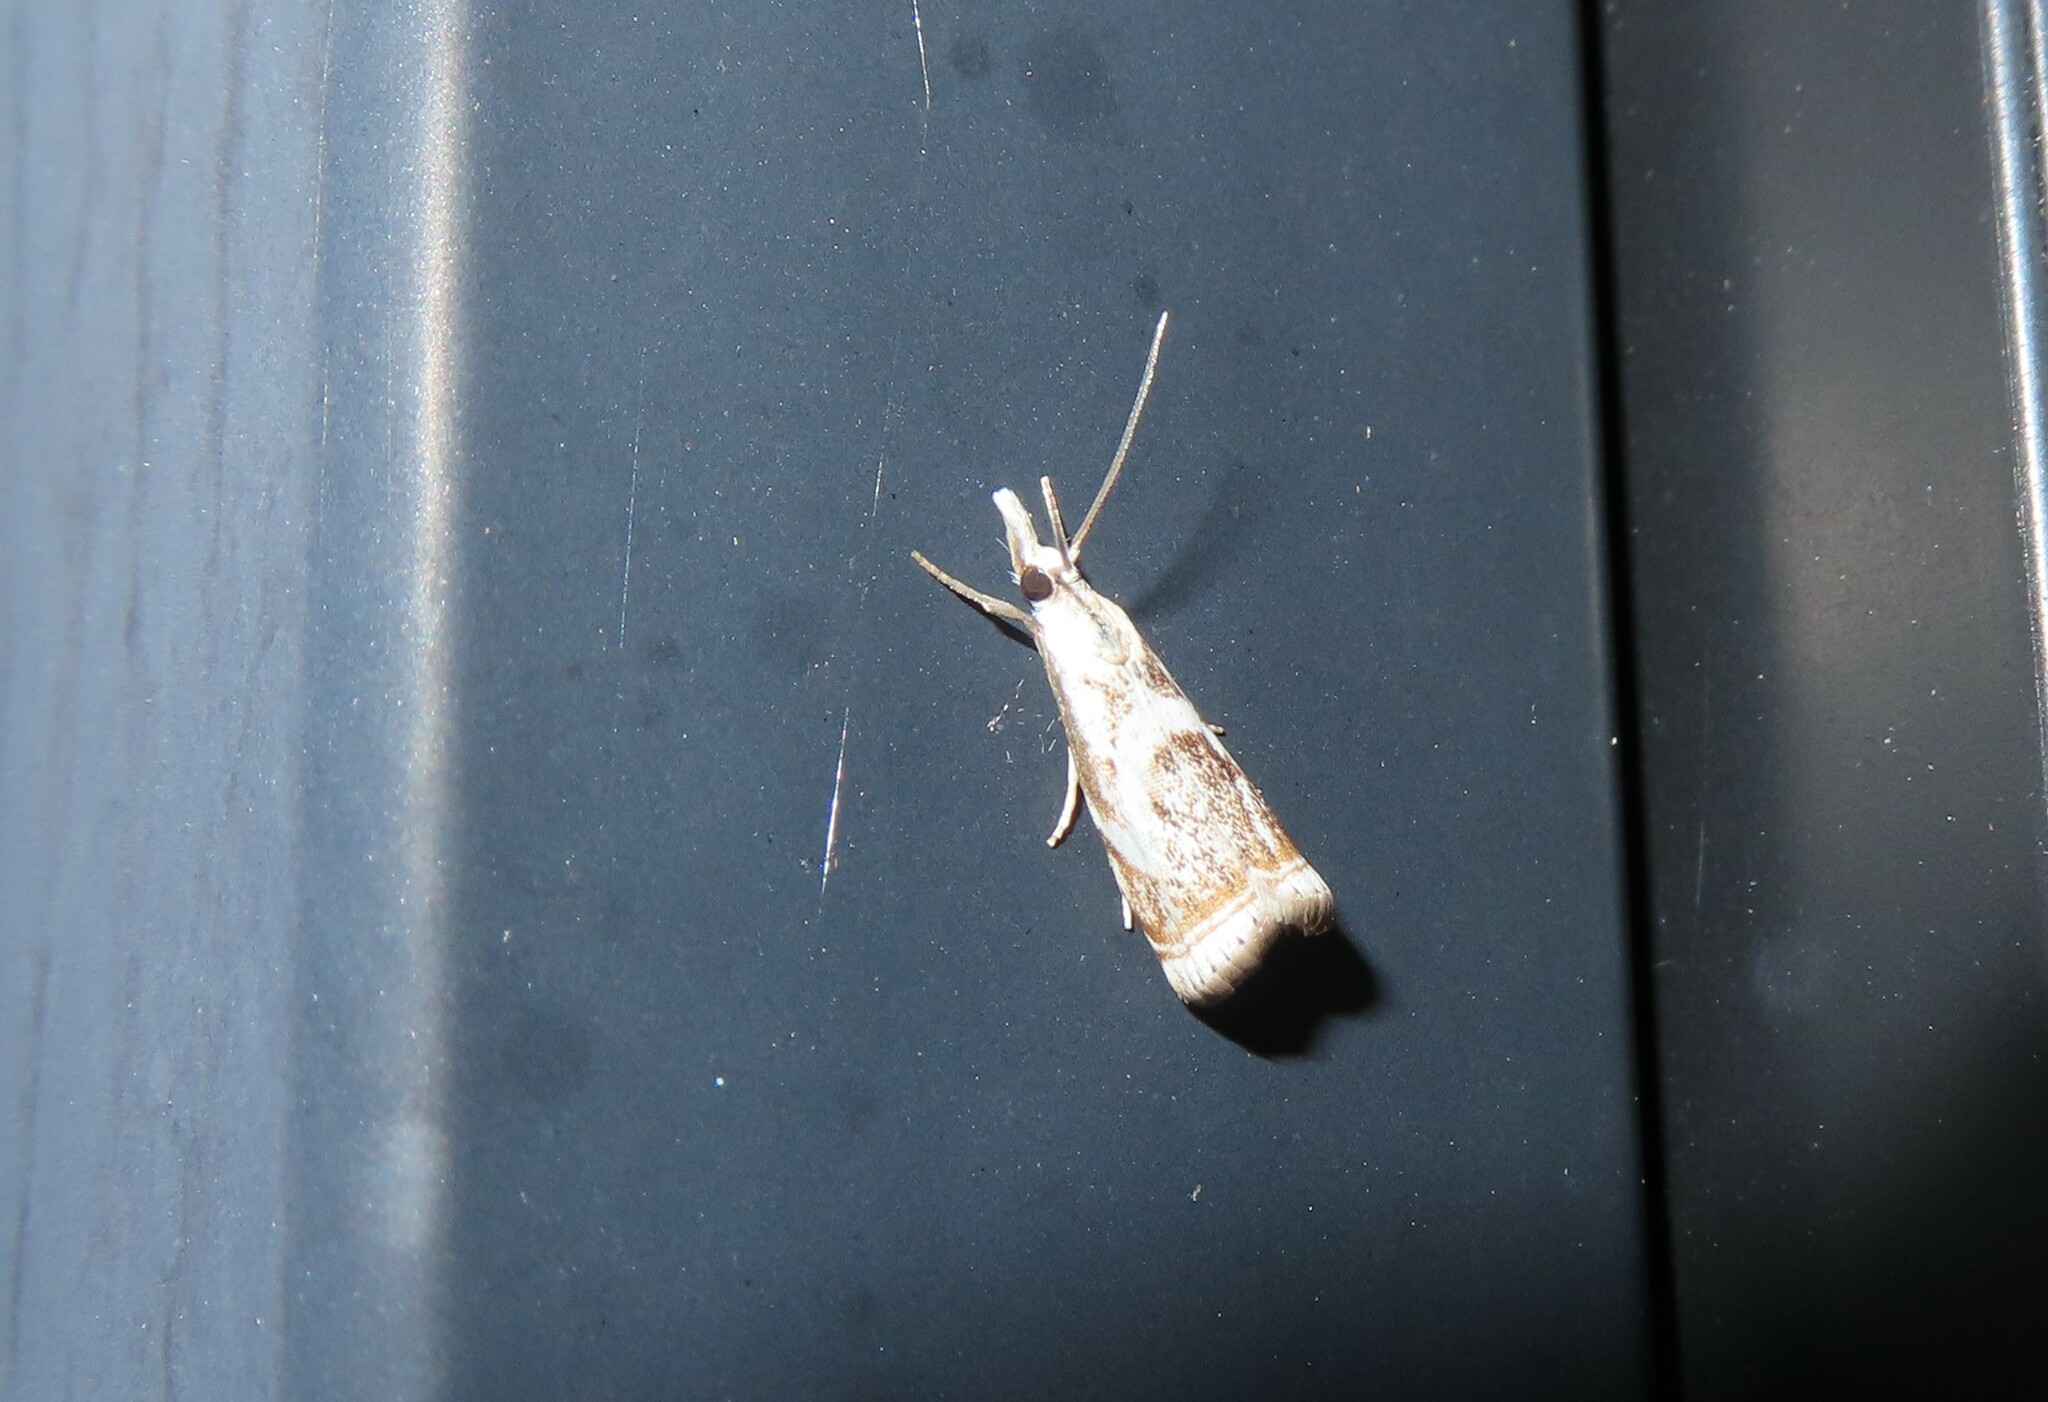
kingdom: Animalia
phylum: Arthropoda
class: Insecta
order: Lepidoptera
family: Crambidae
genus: Microcrambus
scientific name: Microcrambus elegans
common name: Elegant grass-veneer
